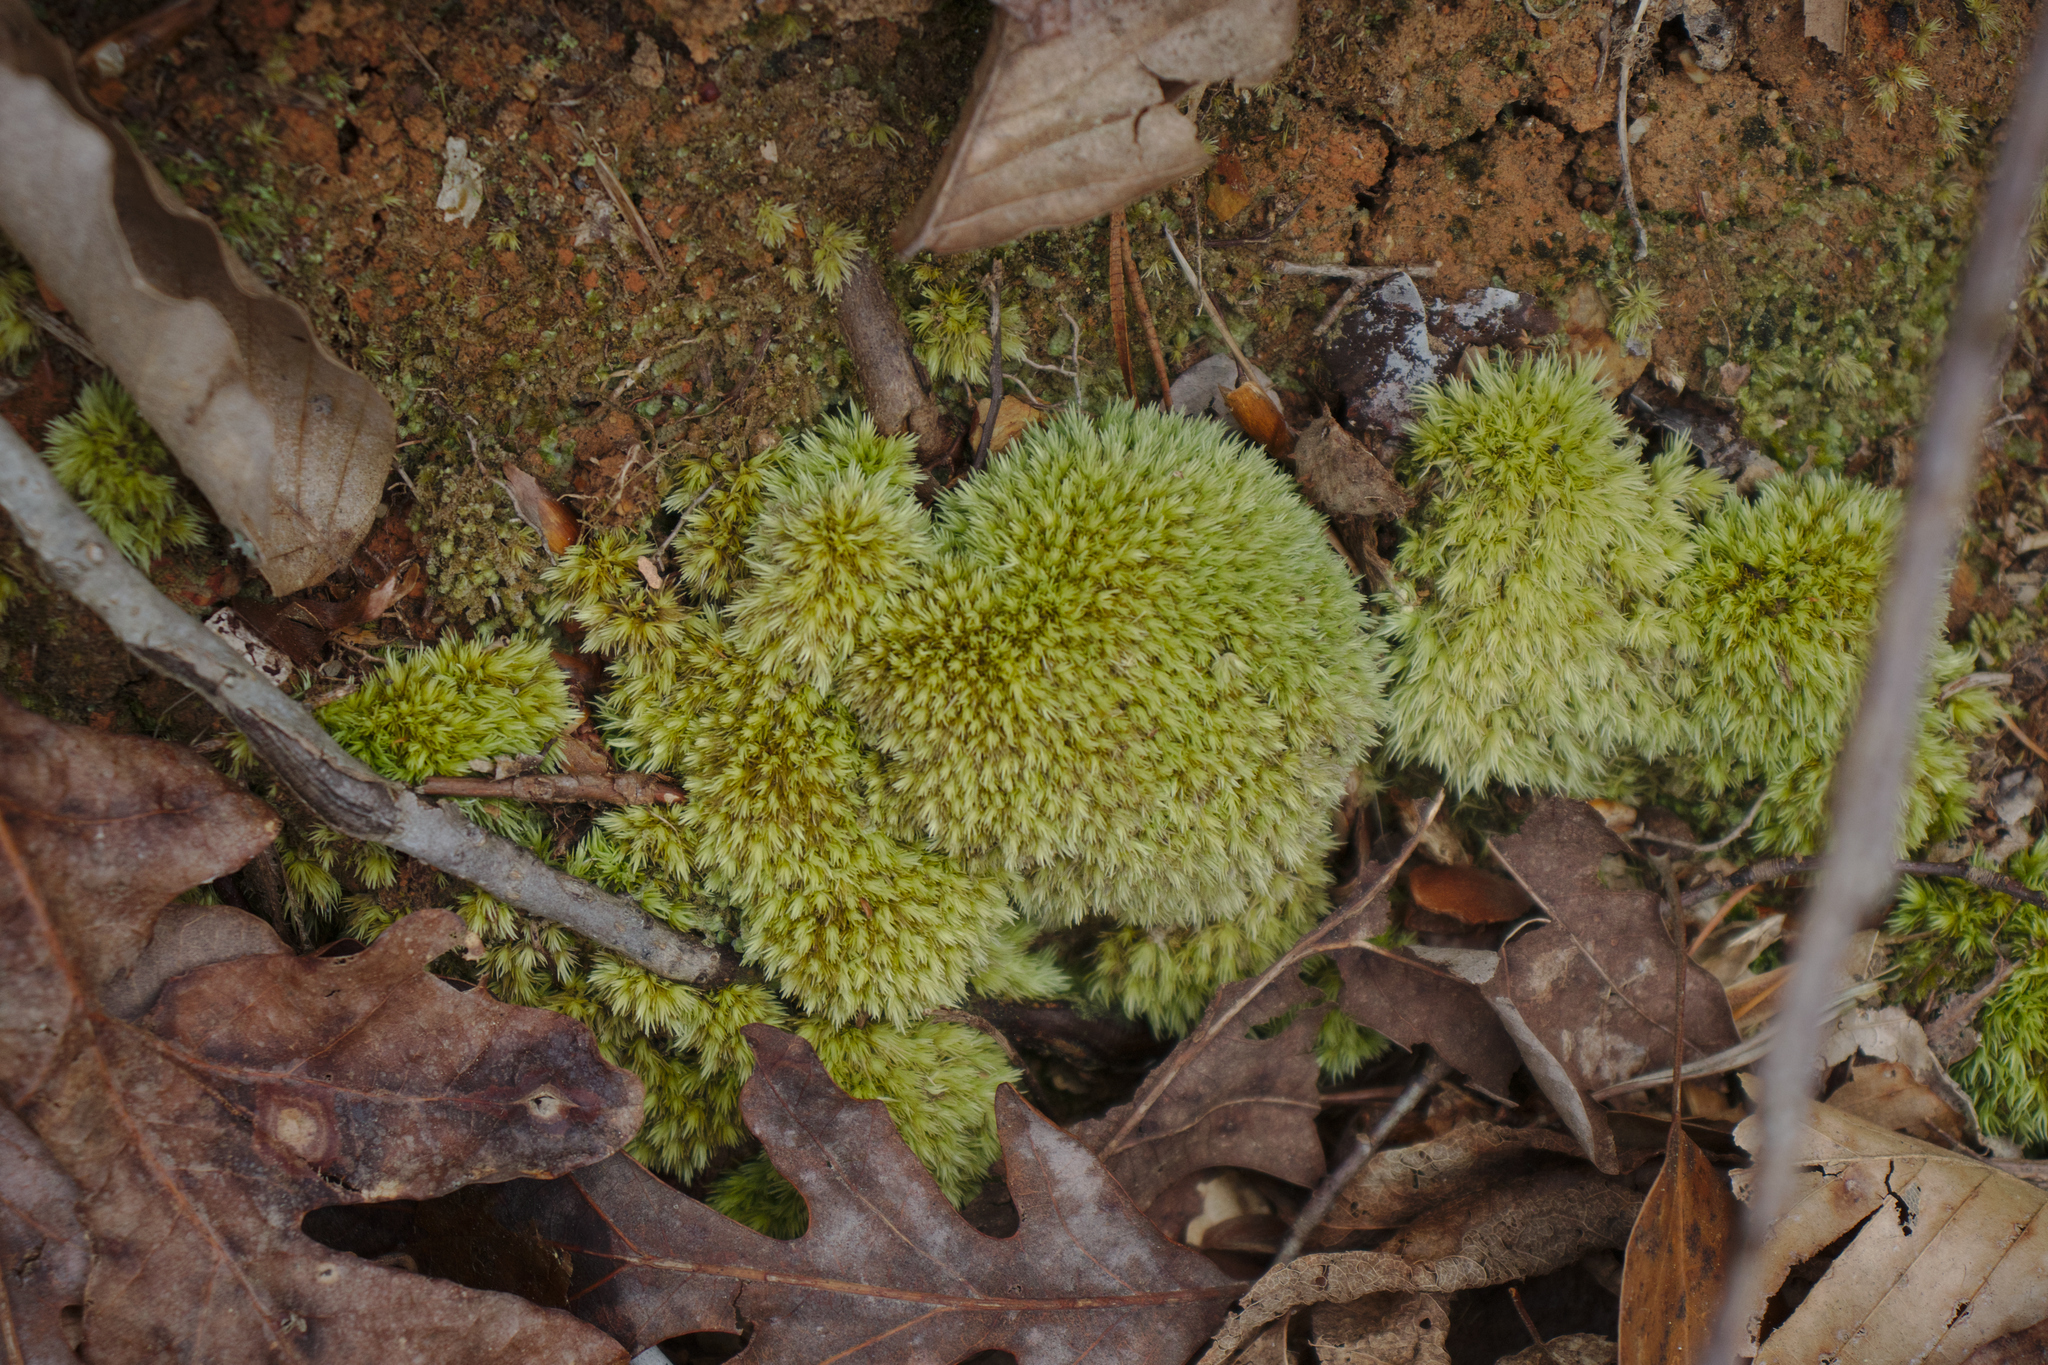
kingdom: Plantae
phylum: Bryophyta
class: Bryopsida
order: Dicranales
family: Leucobryaceae
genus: Leucobryum
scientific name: Leucobryum glaucum
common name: Large white-moss
